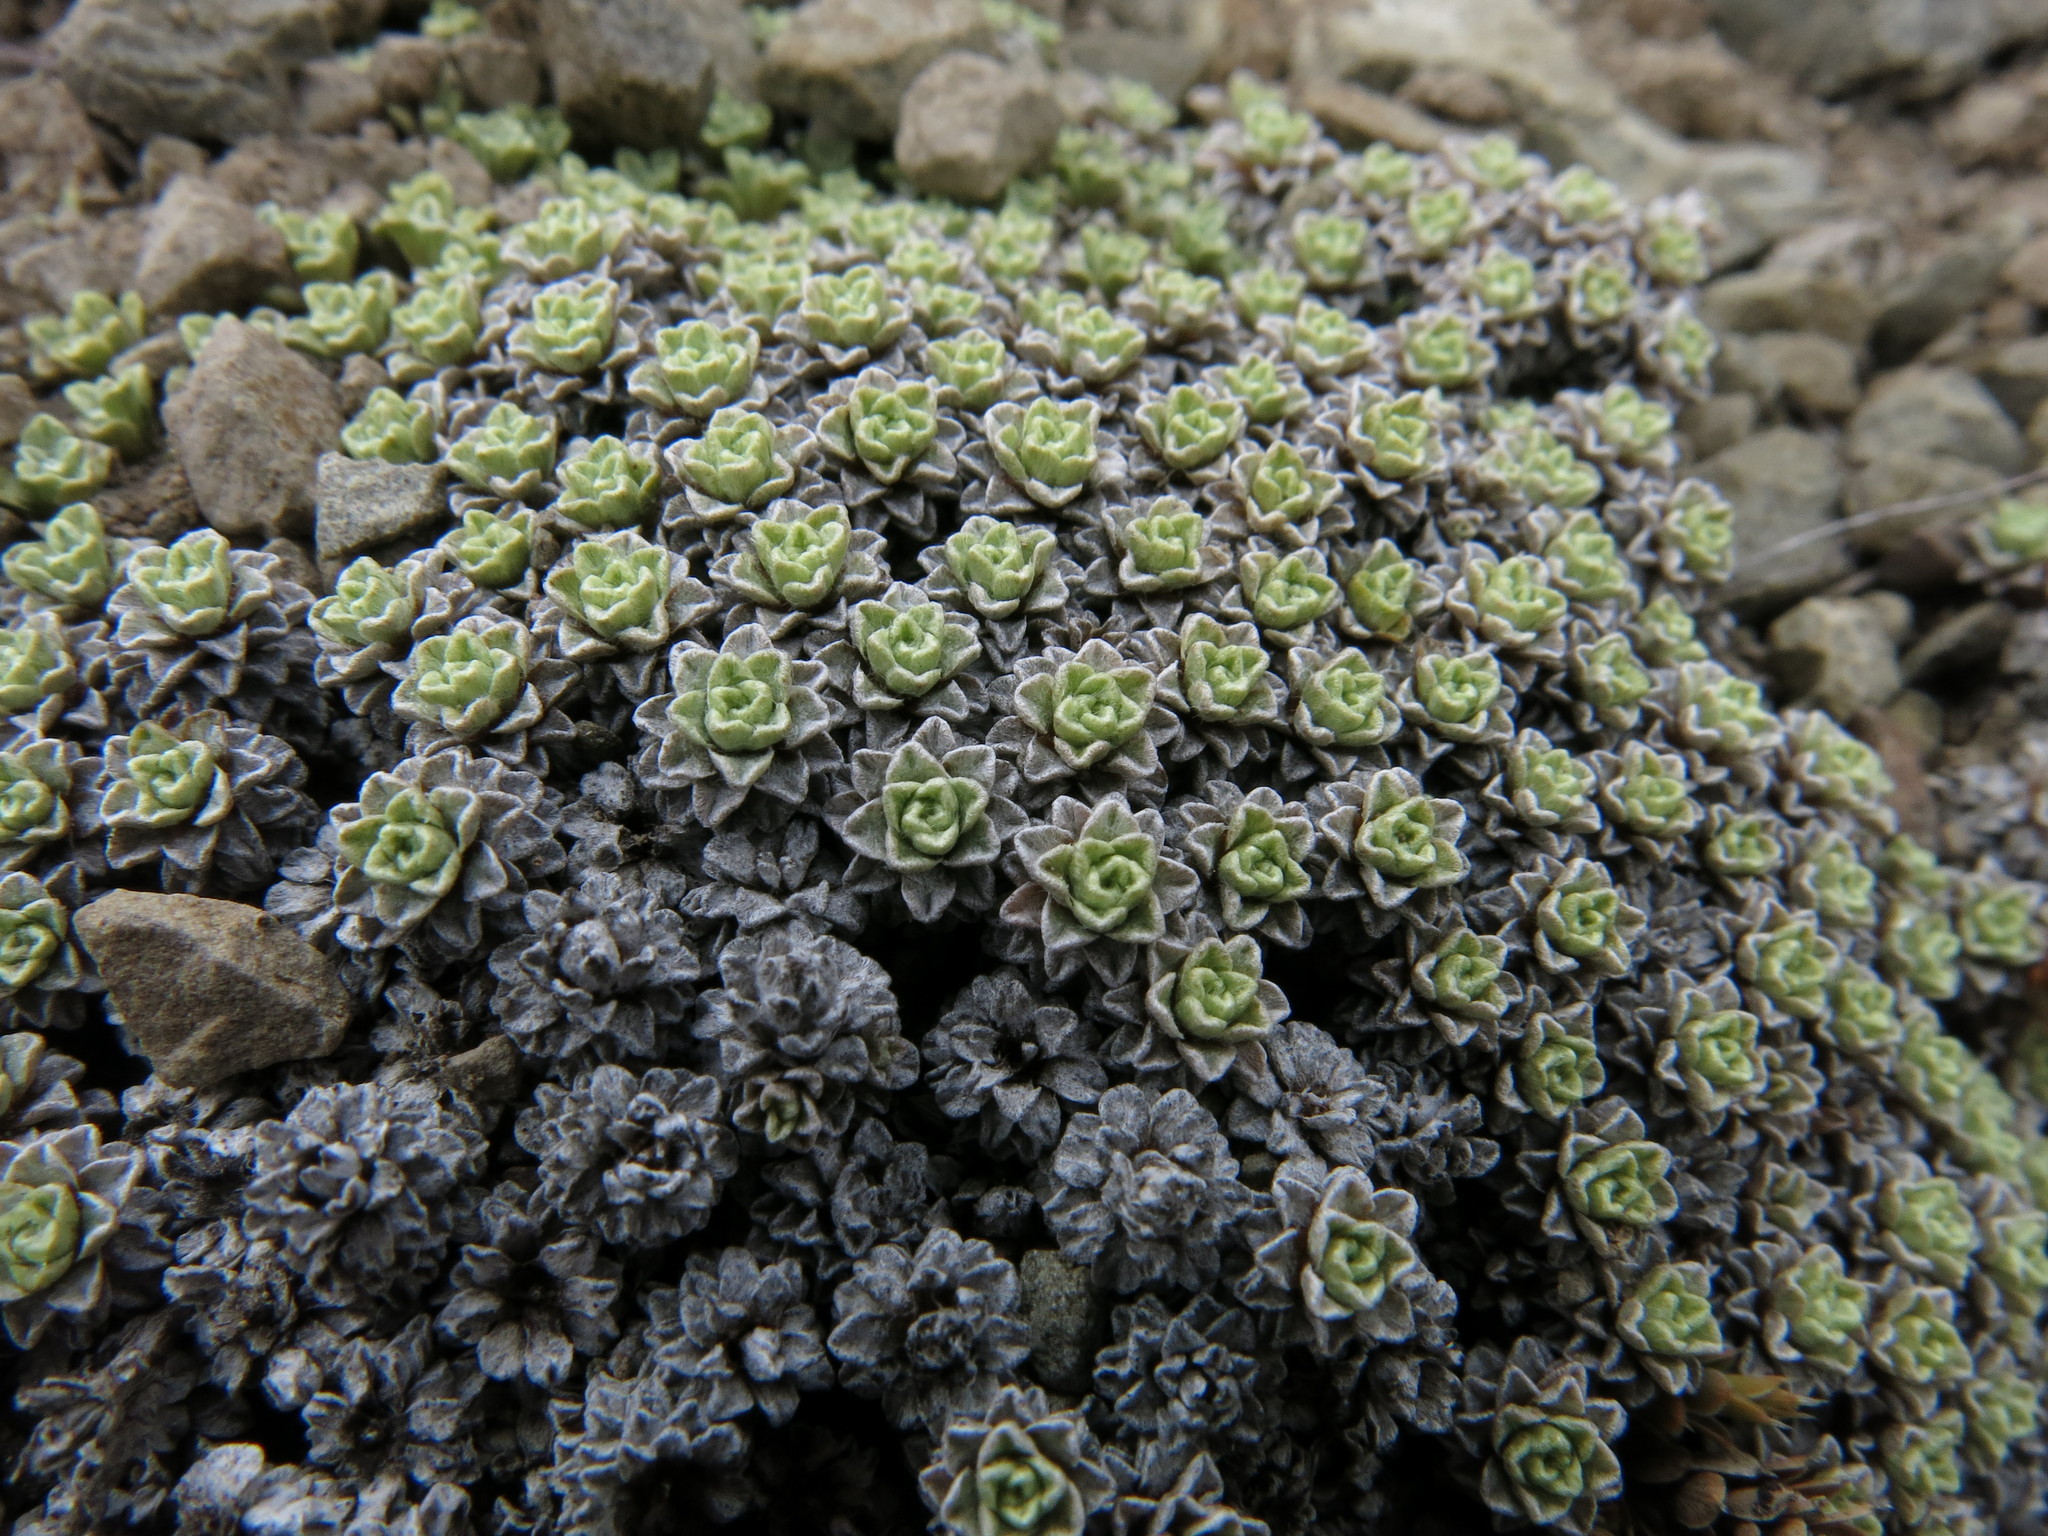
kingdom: Plantae
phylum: Tracheophyta
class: Magnoliopsida
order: Asterales
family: Asteraceae
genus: Raoulia
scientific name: Raoulia parkii
